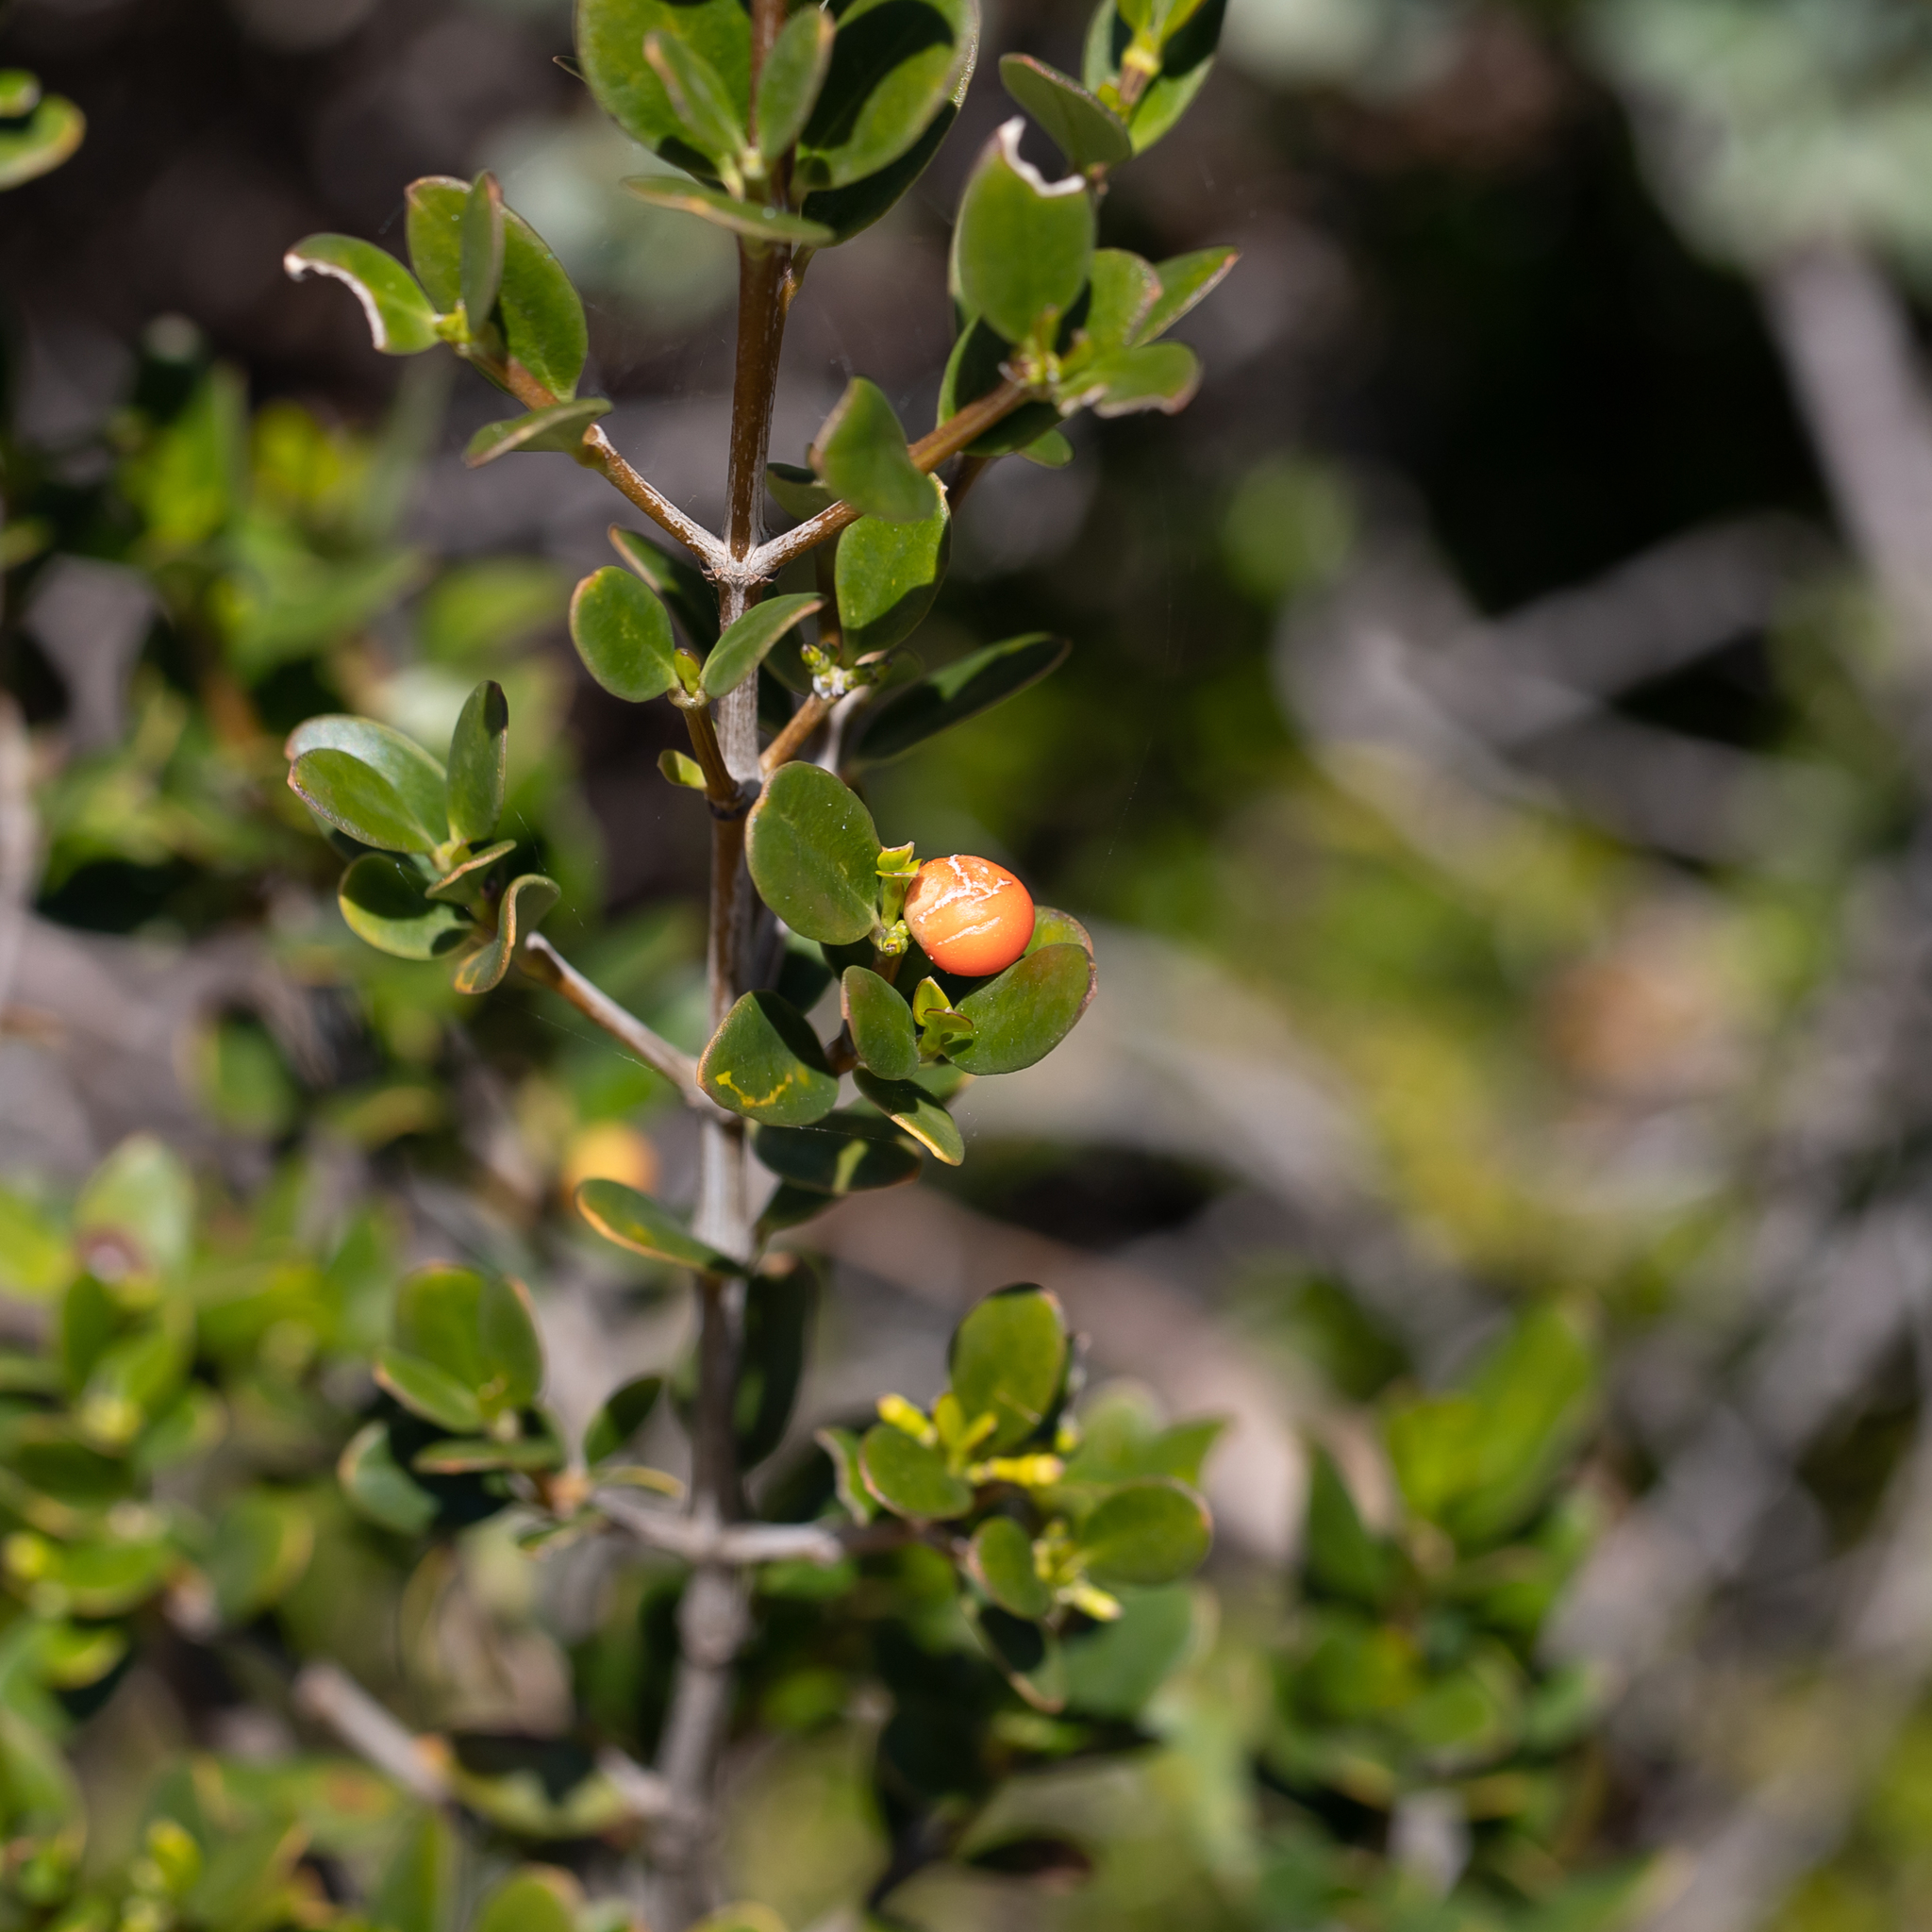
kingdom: Plantae
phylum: Tracheophyta
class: Magnoliopsida
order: Gentianales
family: Apocynaceae
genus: Alyxia
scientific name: Alyxia buxifolia
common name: Dysentery-bush
